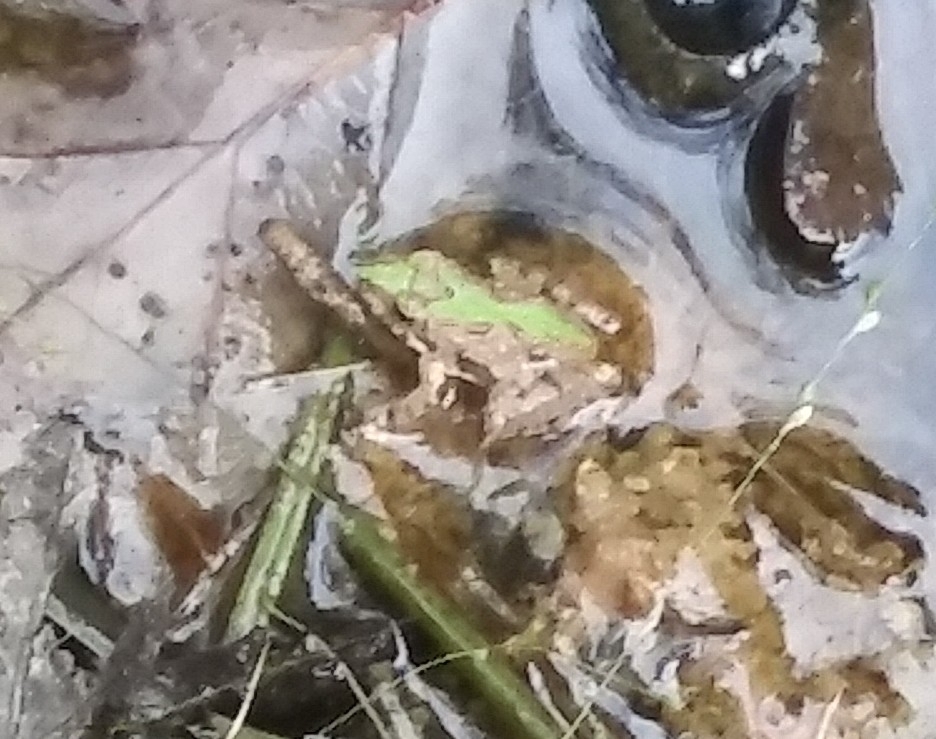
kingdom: Animalia
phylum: Chordata
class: Amphibia
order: Anura
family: Hylidae
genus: Acris
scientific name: Acris crepitans
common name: Northern cricket frog
